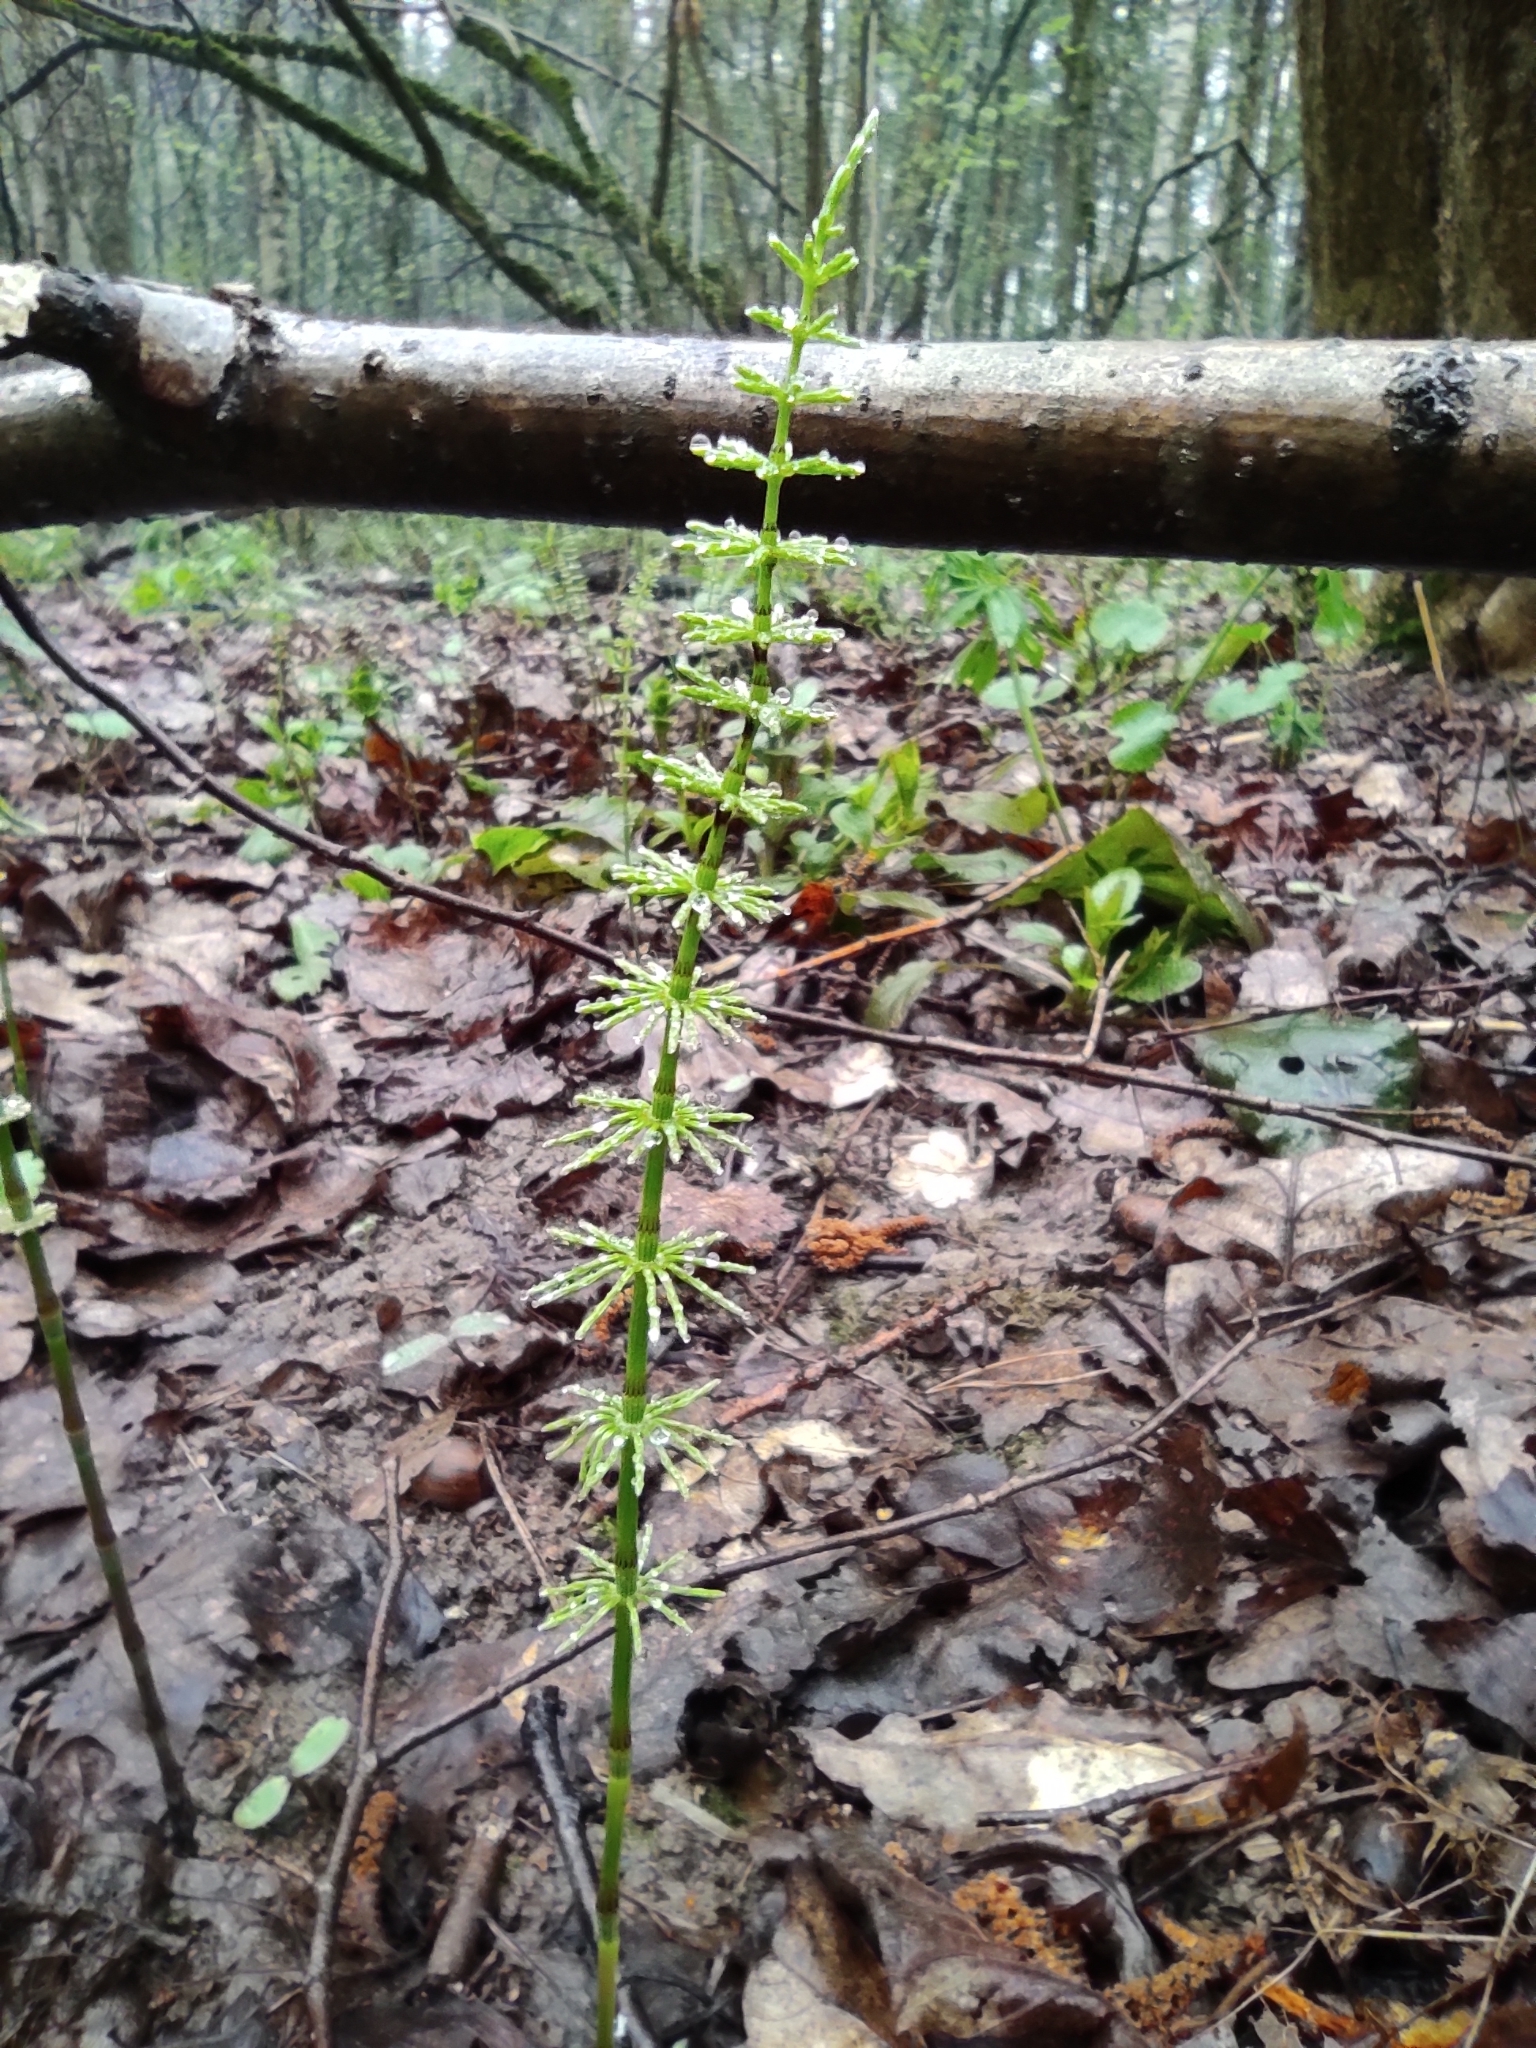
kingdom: Plantae
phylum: Tracheophyta
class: Polypodiopsida
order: Equisetales
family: Equisetaceae
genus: Equisetum
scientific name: Equisetum pratense
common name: Meadow horsetail
